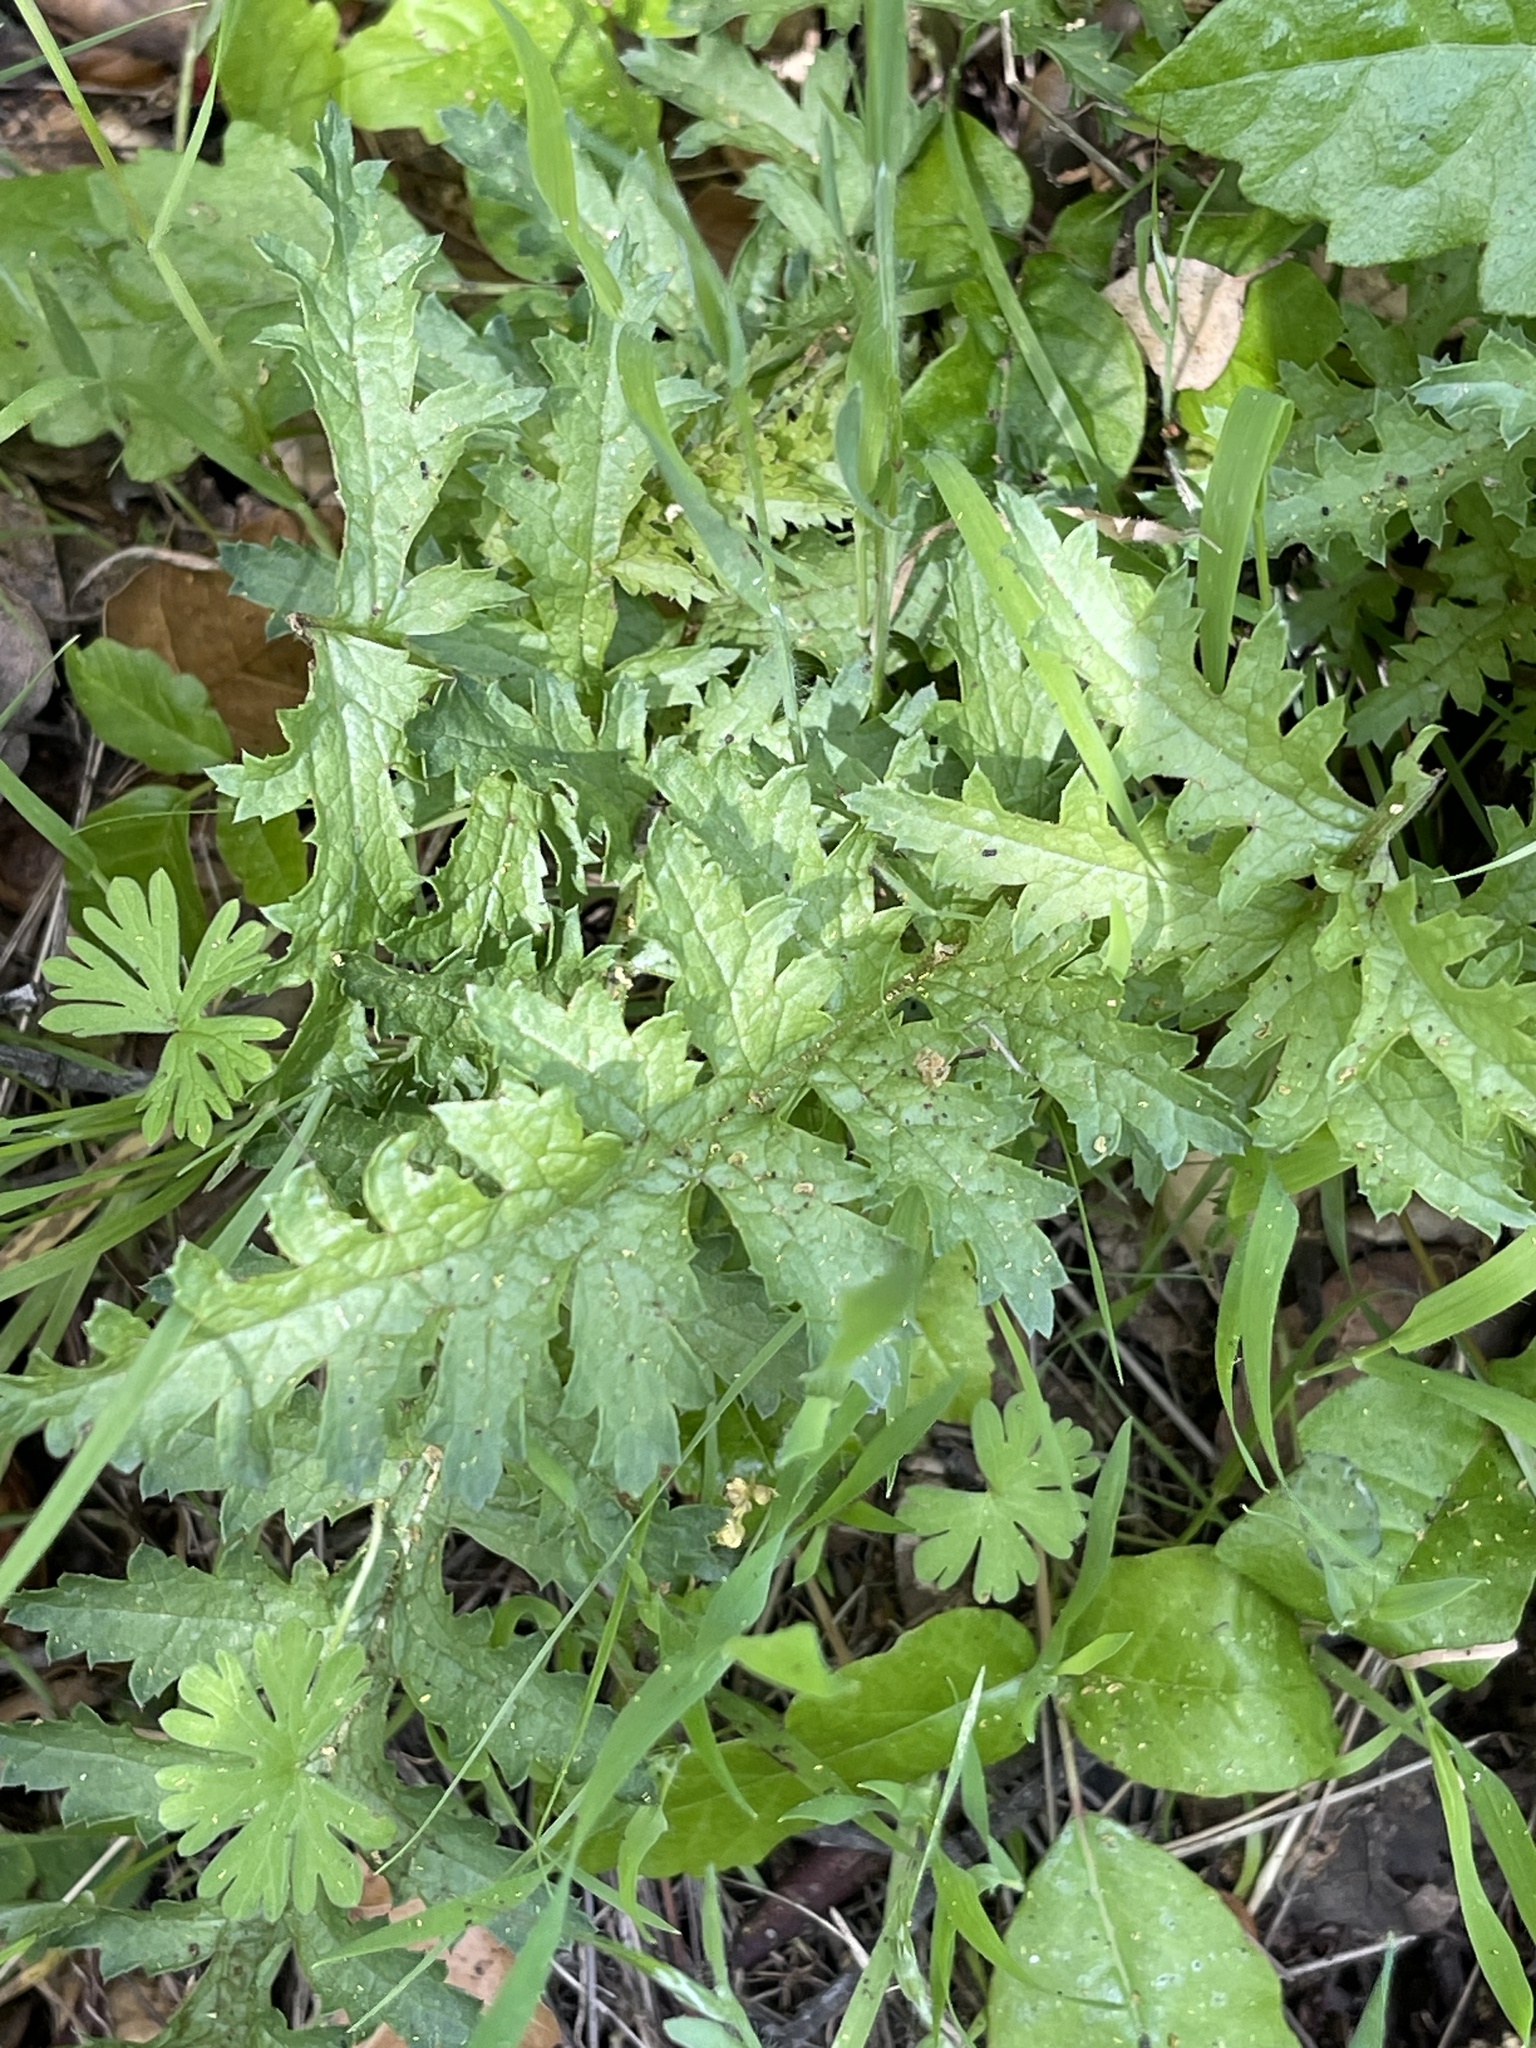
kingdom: Plantae
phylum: Tracheophyta
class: Magnoliopsida
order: Lamiales
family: Orobanchaceae
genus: Pedicularis
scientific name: Pedicularis densiflora
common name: Indian warrior
